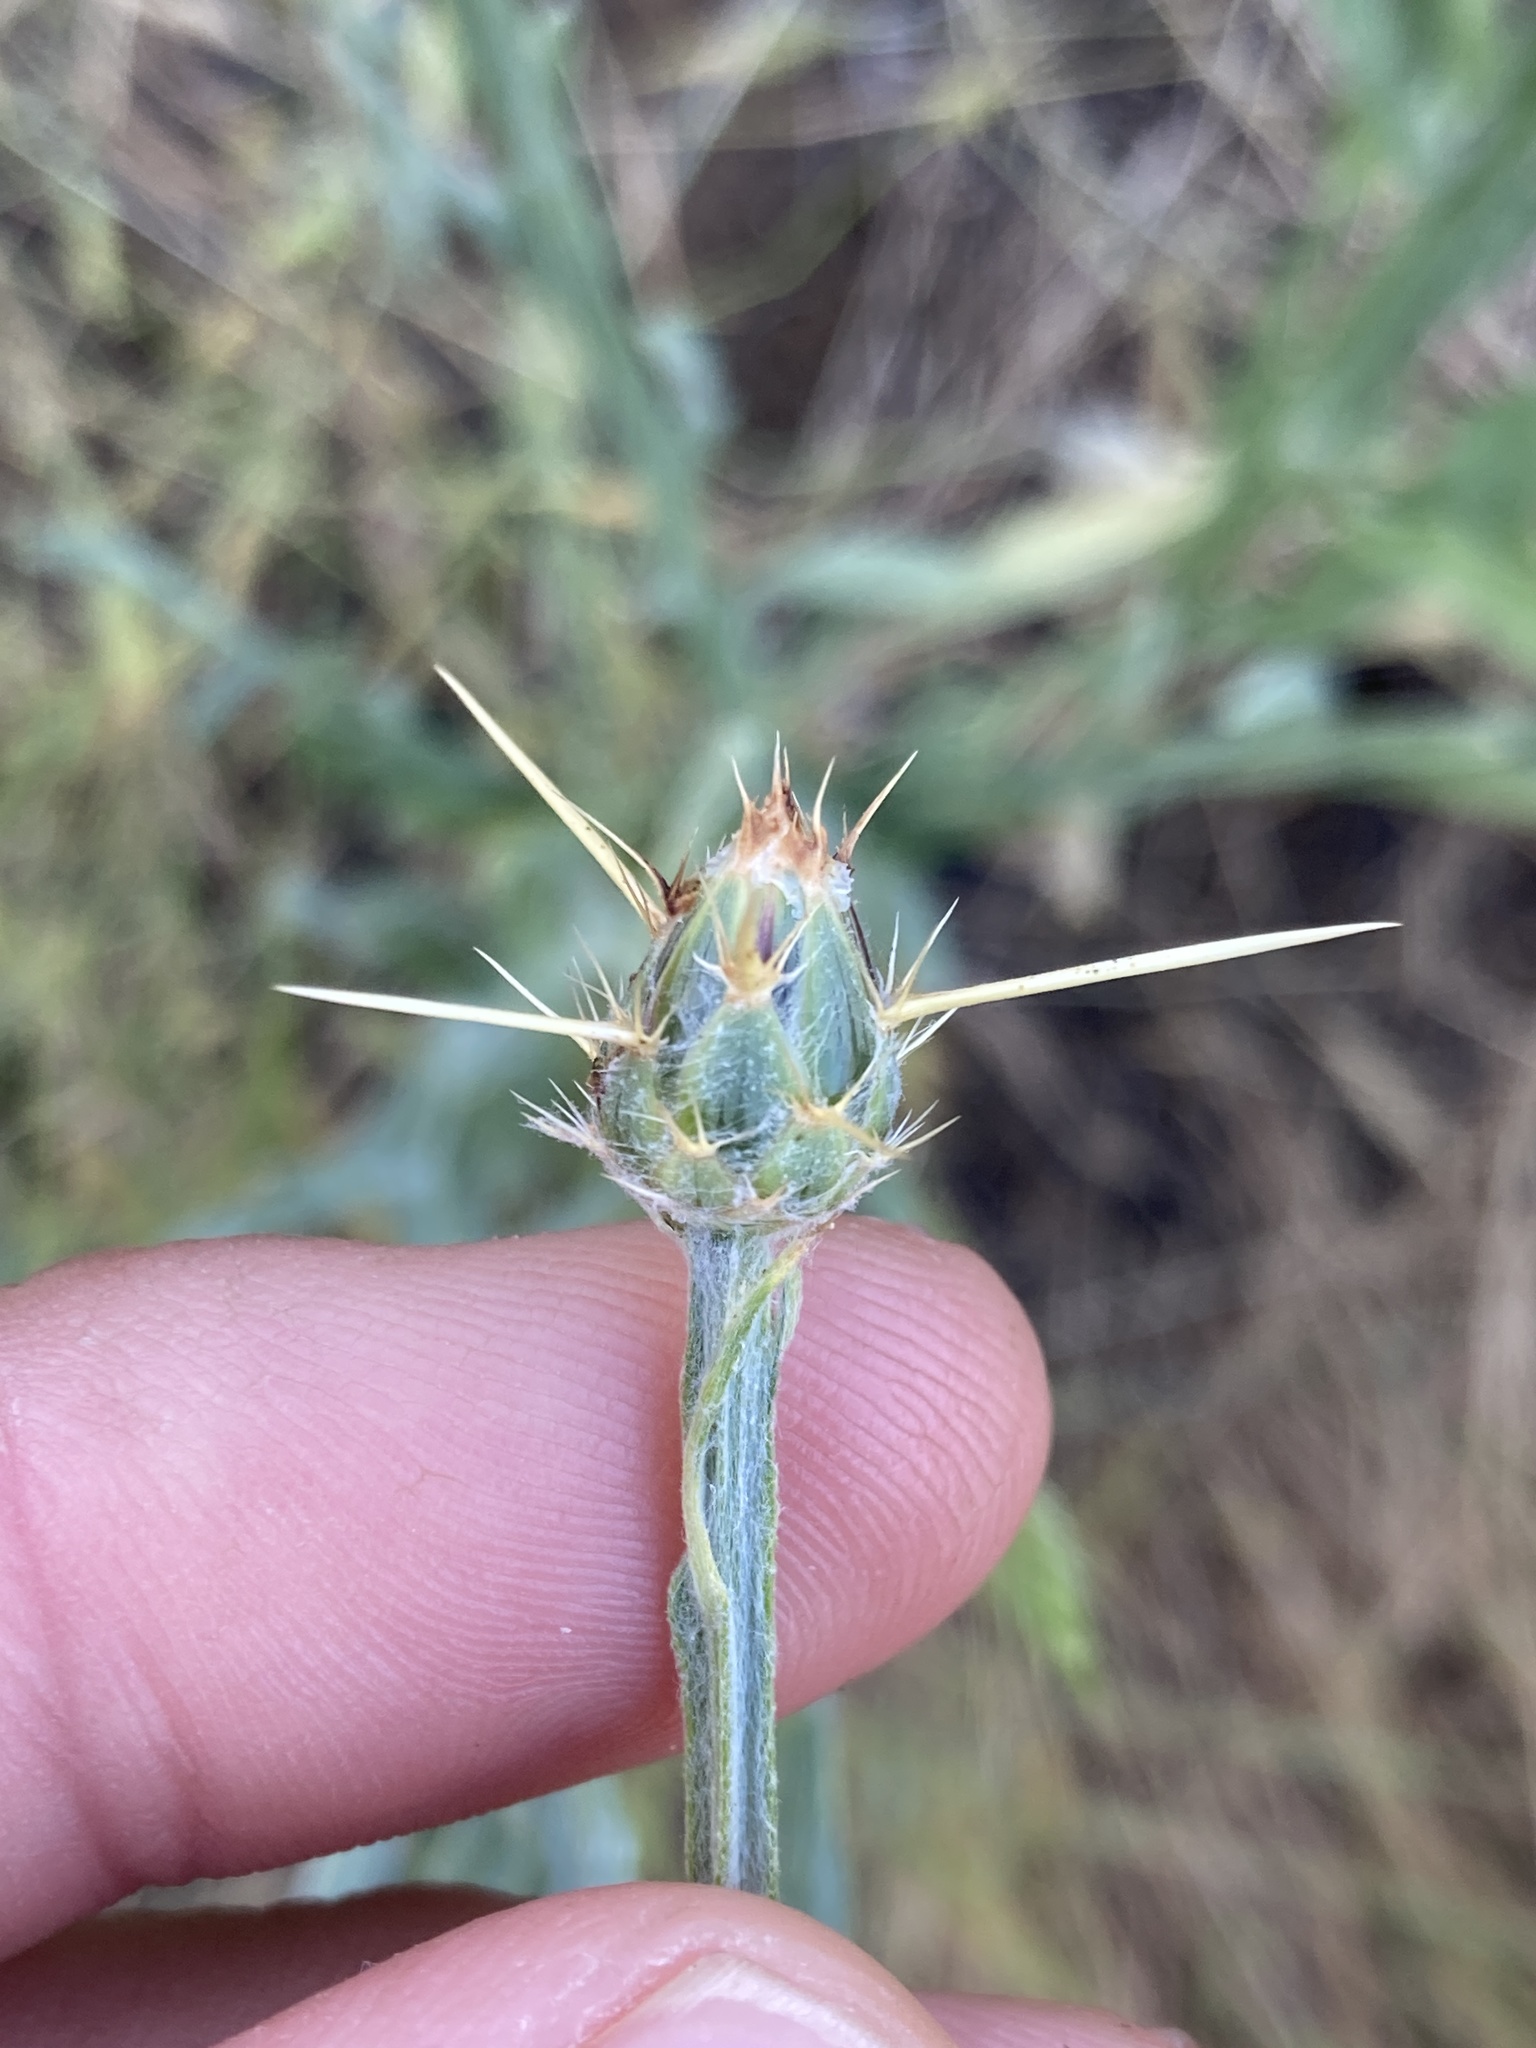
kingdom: Plantae
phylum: Tracheophyta
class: Magnoliopsida
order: Asterales
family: Asteraceae
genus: Centaurea
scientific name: Centaurea solstitialis
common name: Yellow star-thistle
